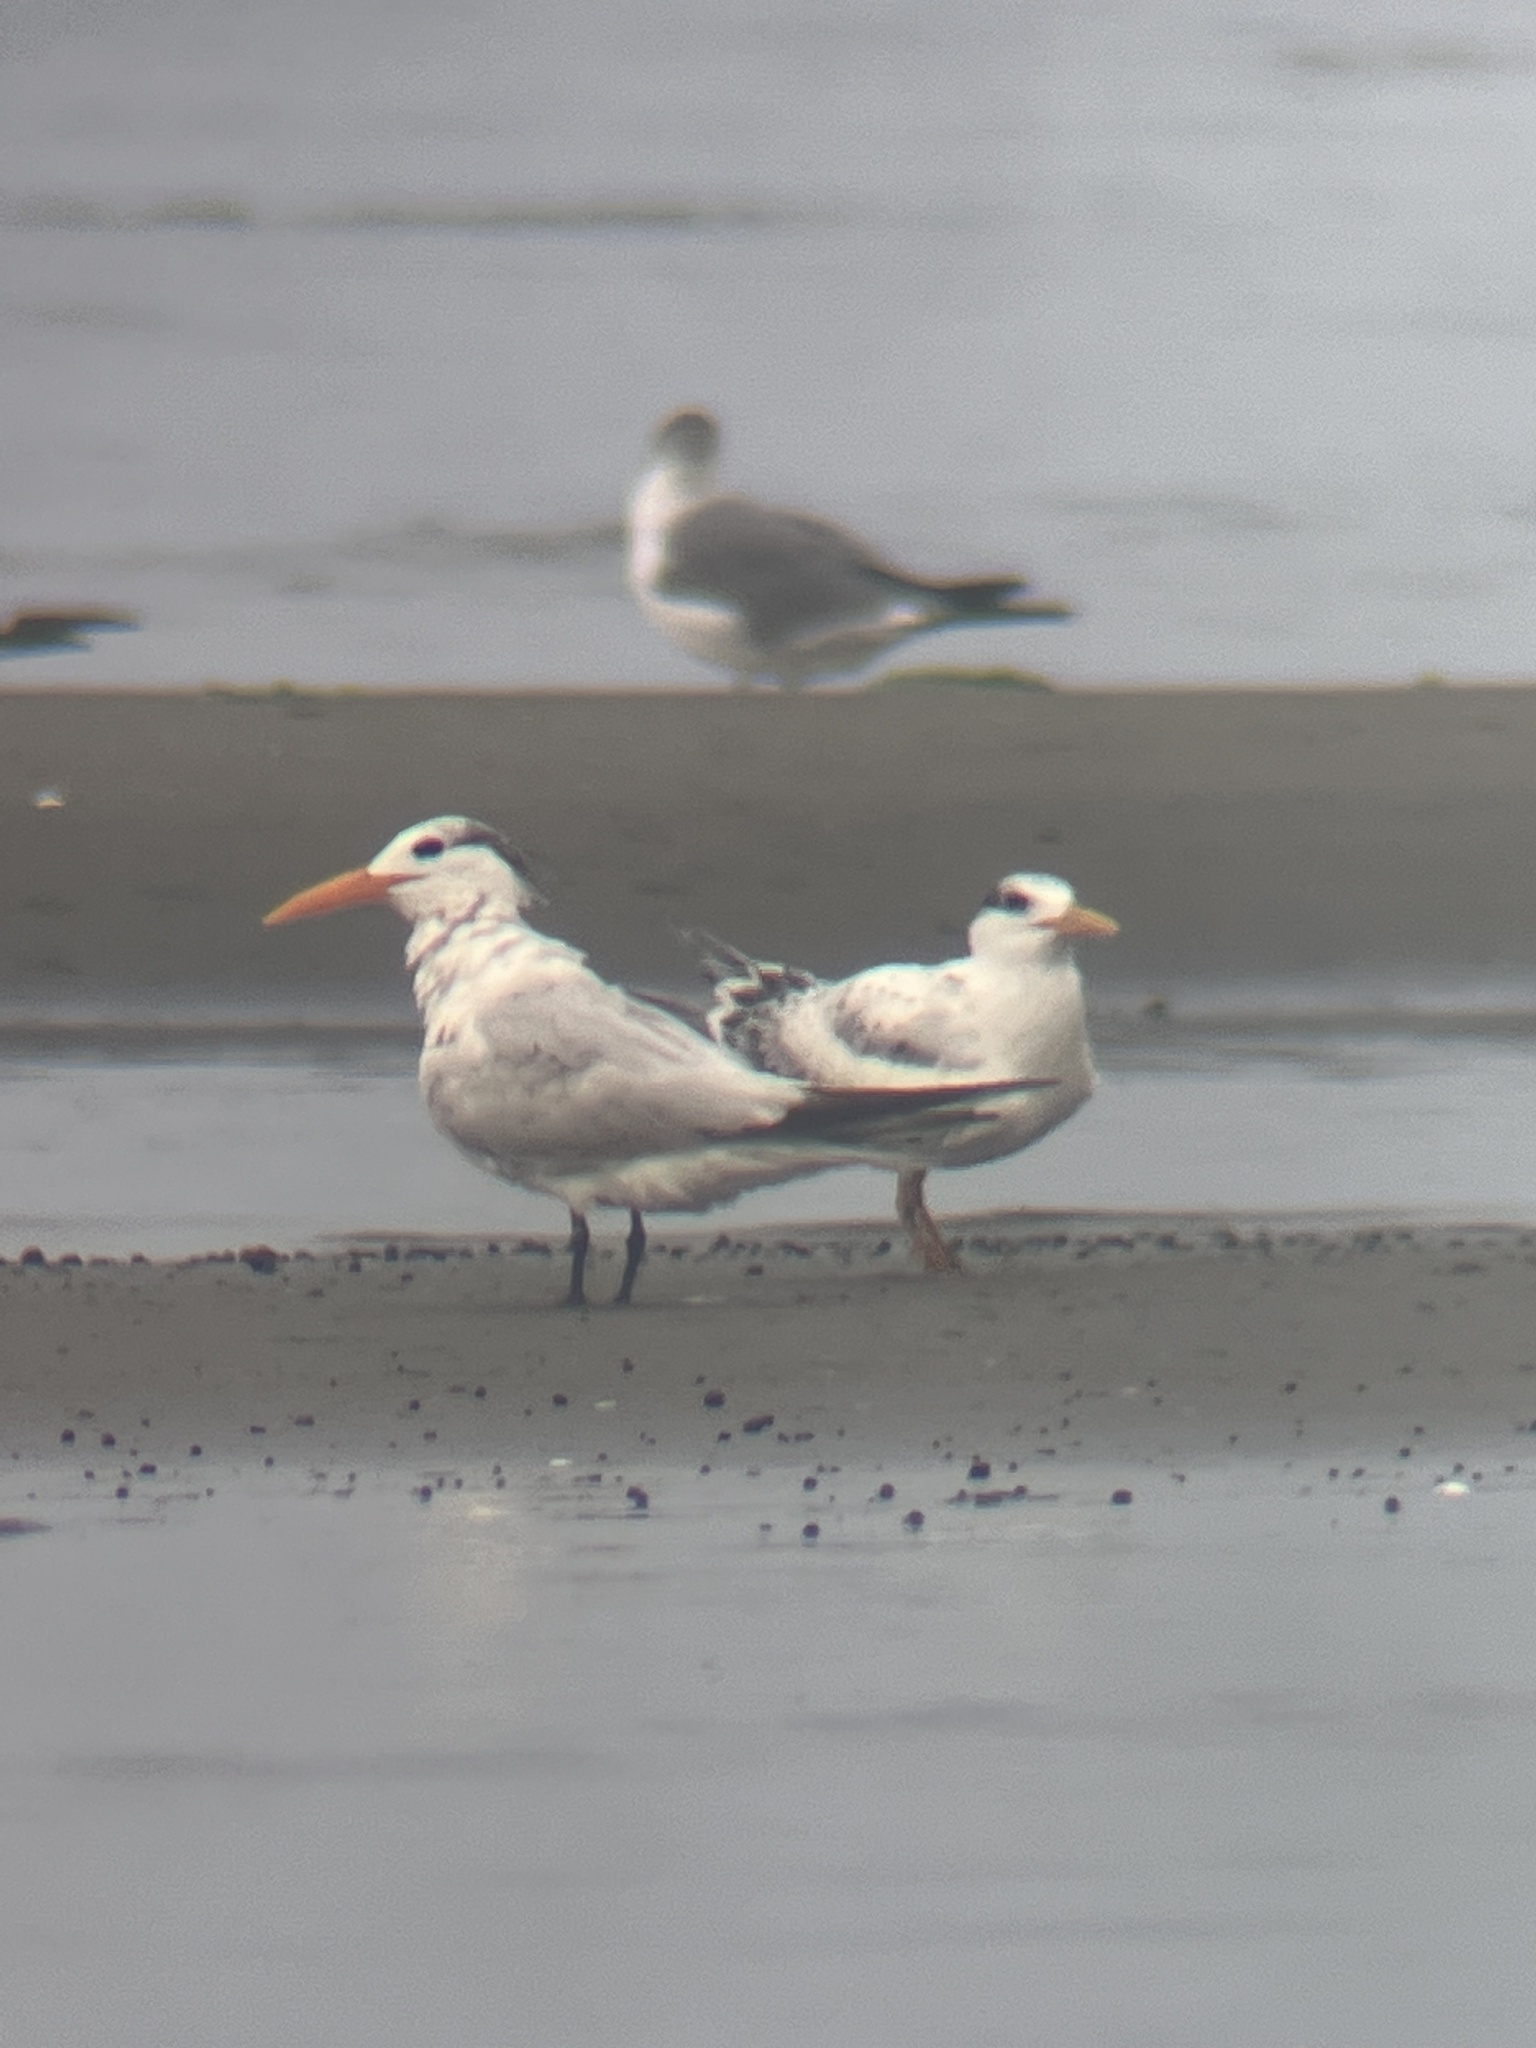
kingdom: Animalia
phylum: Chordata
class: Aves
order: Charadriiformes
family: Laridae
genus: Thalasseus
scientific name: Thalasseus maximus
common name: Royal tern
